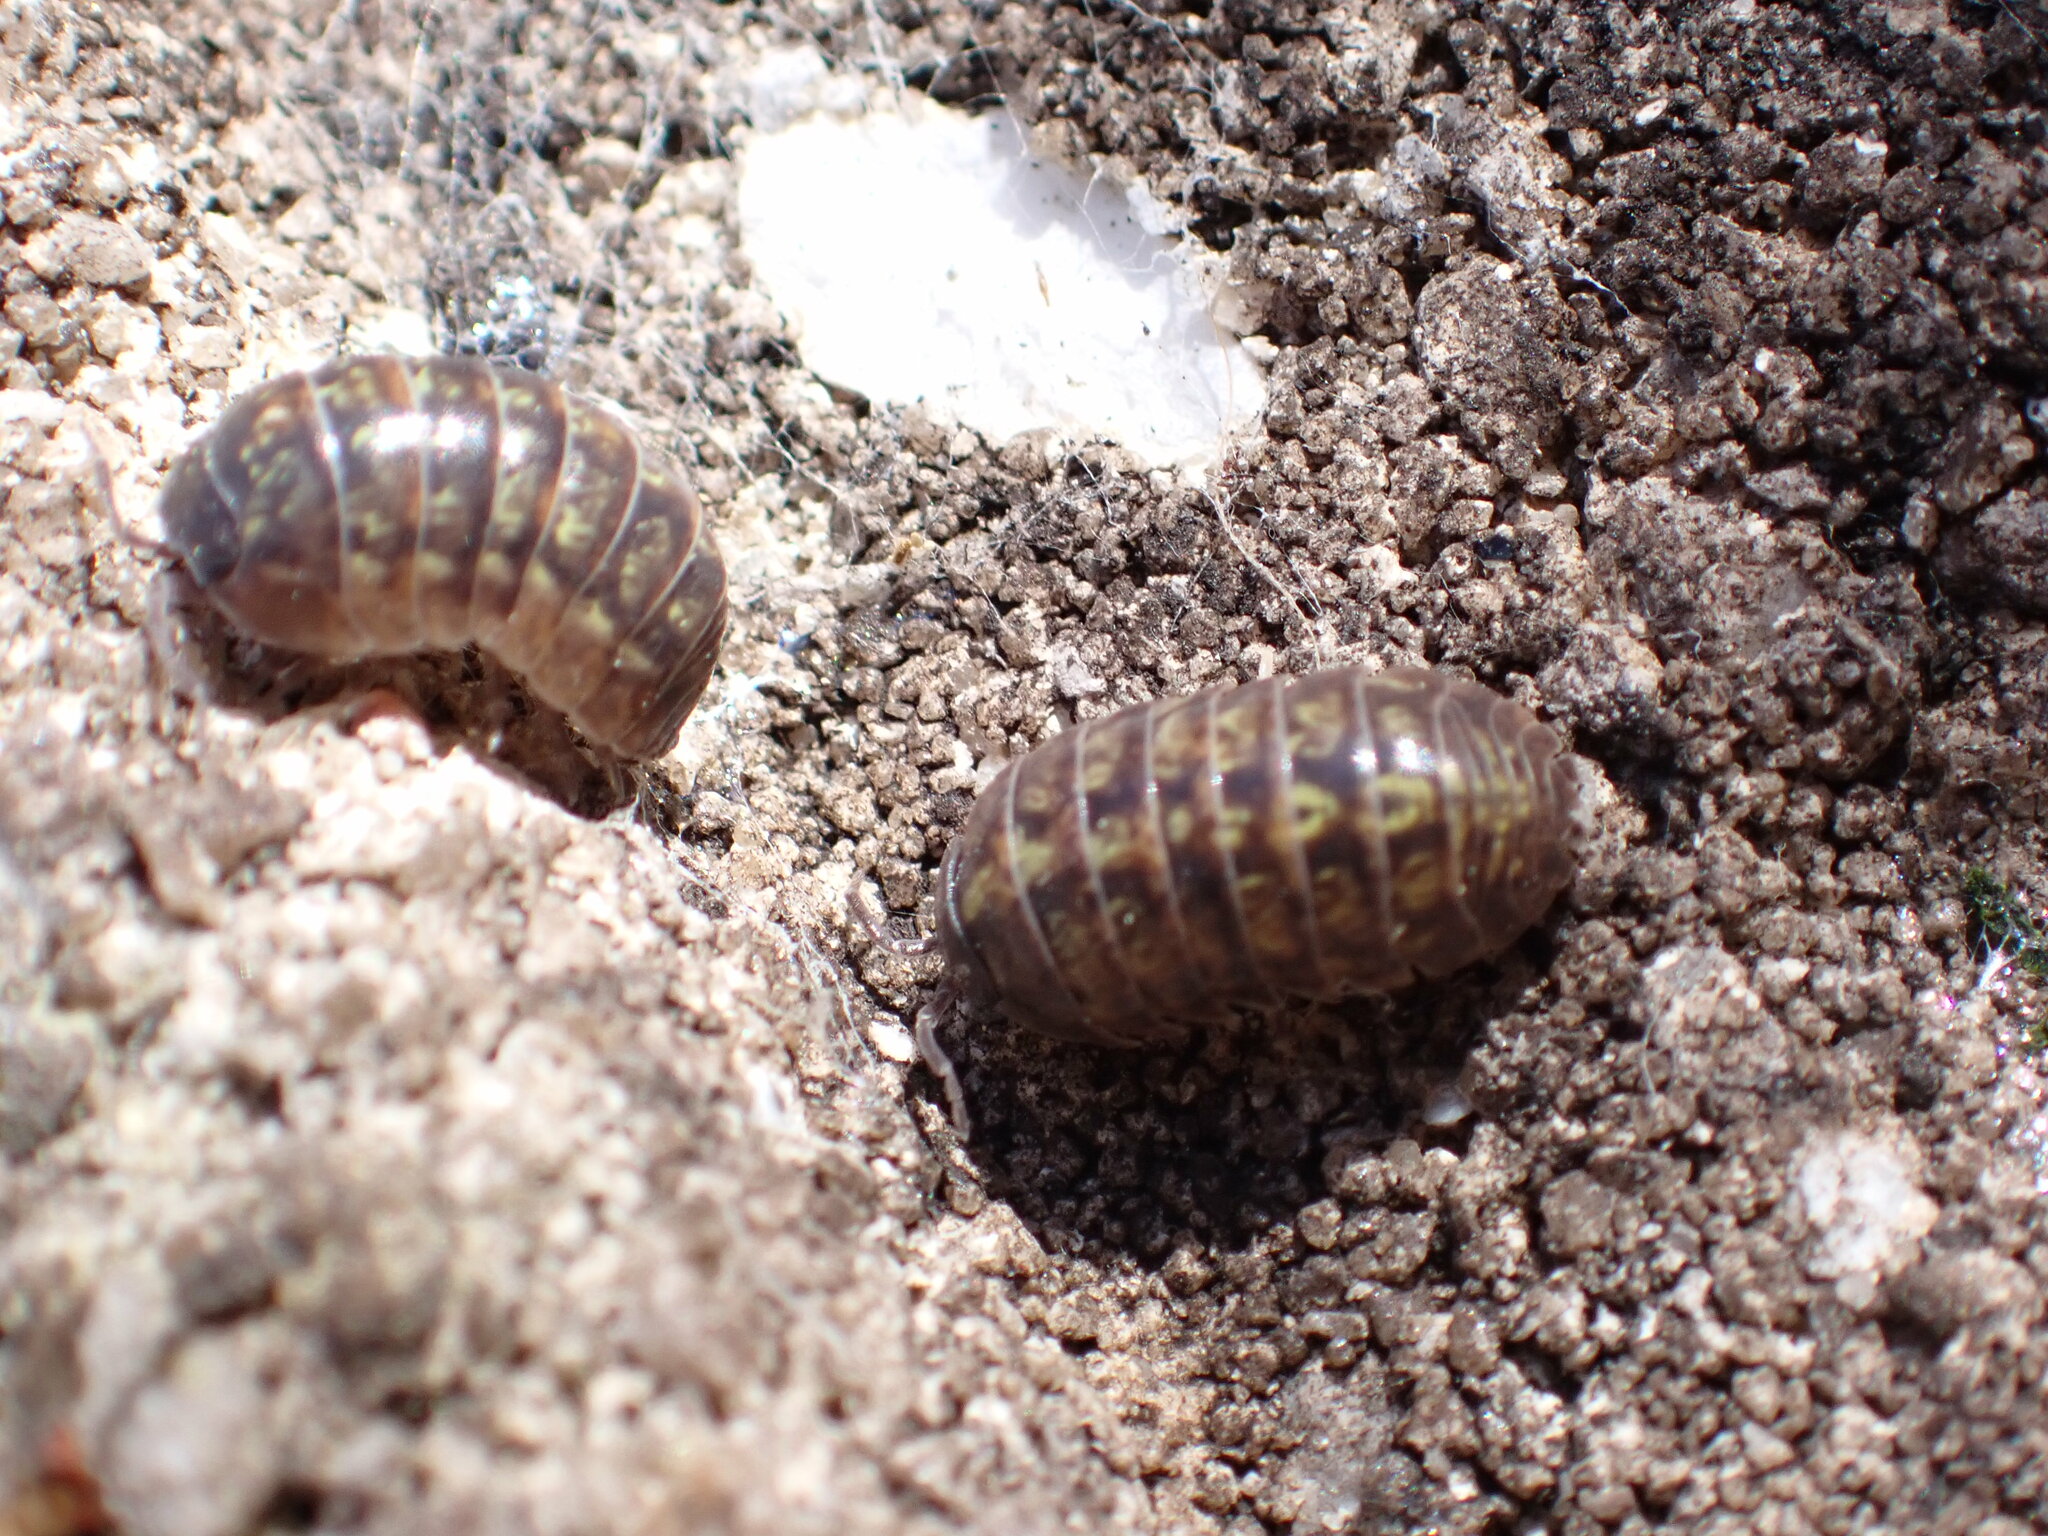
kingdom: Animalia
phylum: Arthropoda
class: Malacostraca
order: Isopoda
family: Armadillidiidae
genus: Armadillidium
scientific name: Armadillidium vulgare
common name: Common pill woodlouse
